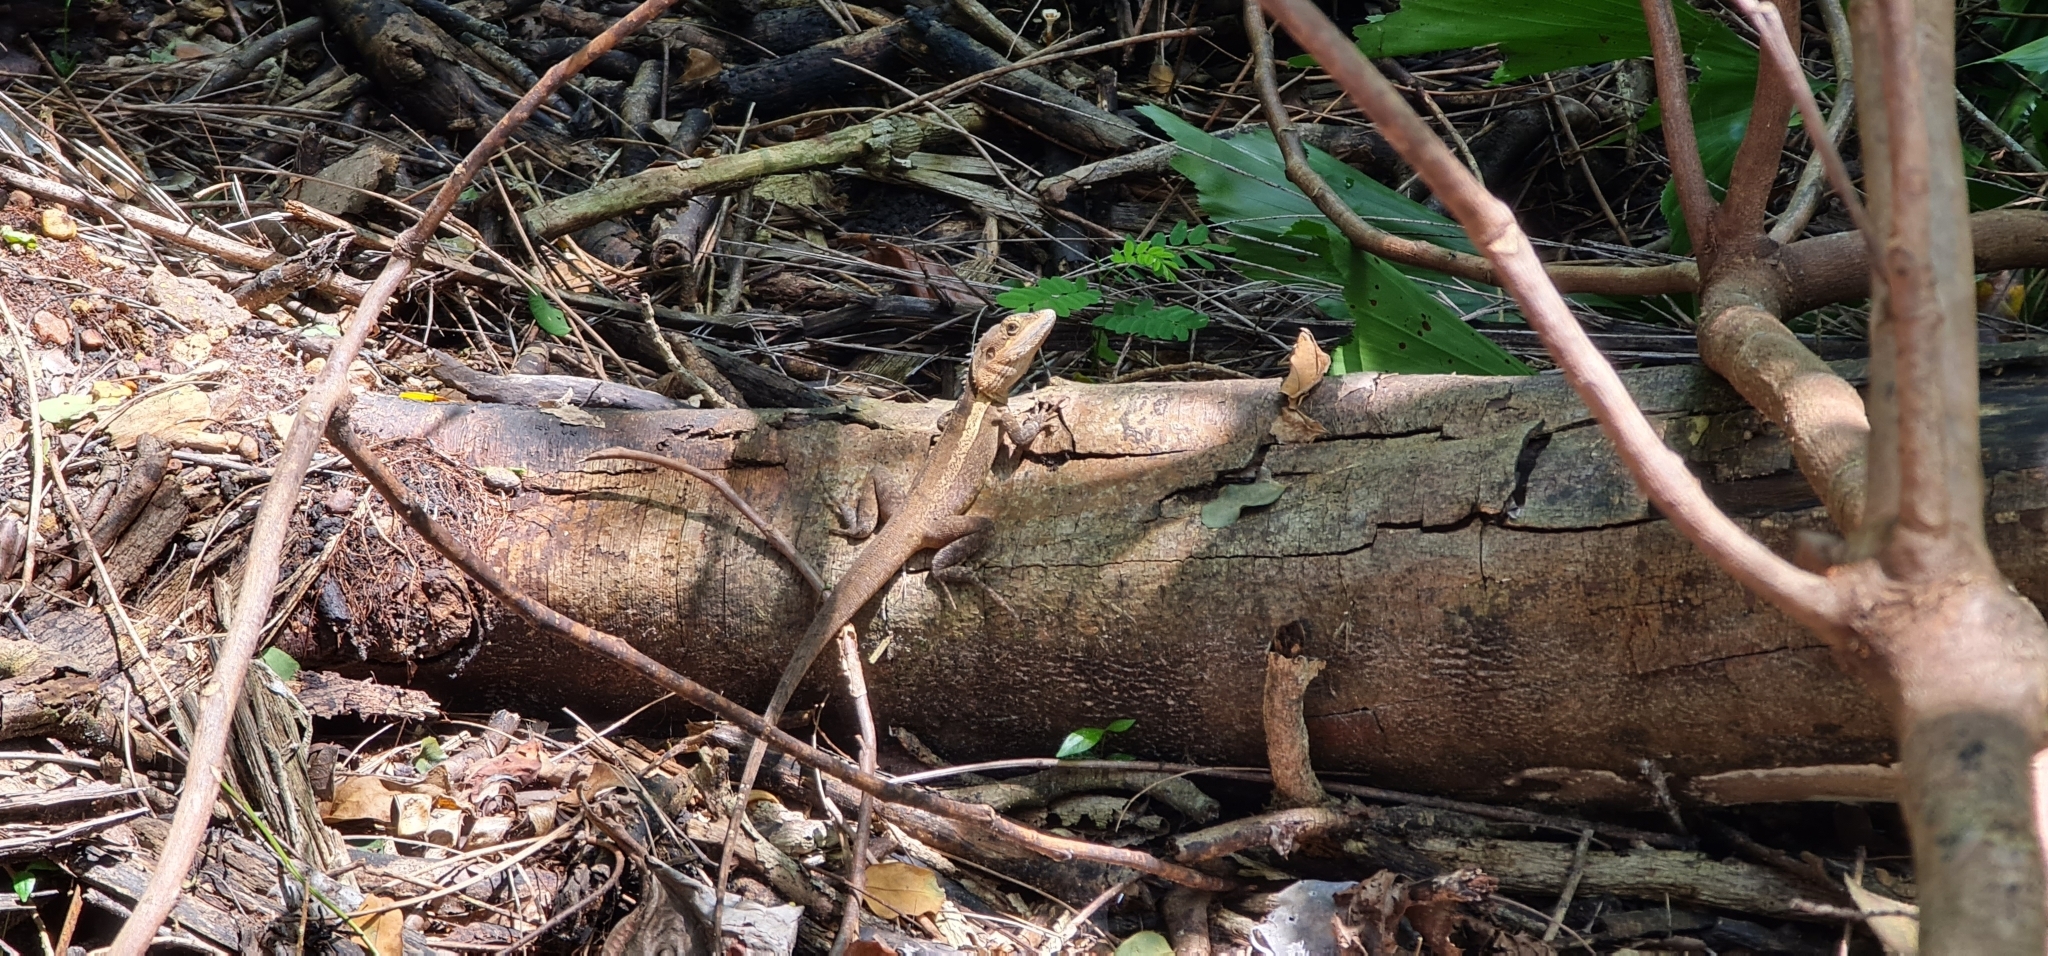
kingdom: Animalia
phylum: Chordata
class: Squamata
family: Agamidae
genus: Tropicagama
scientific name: Tropicagama temporalis
